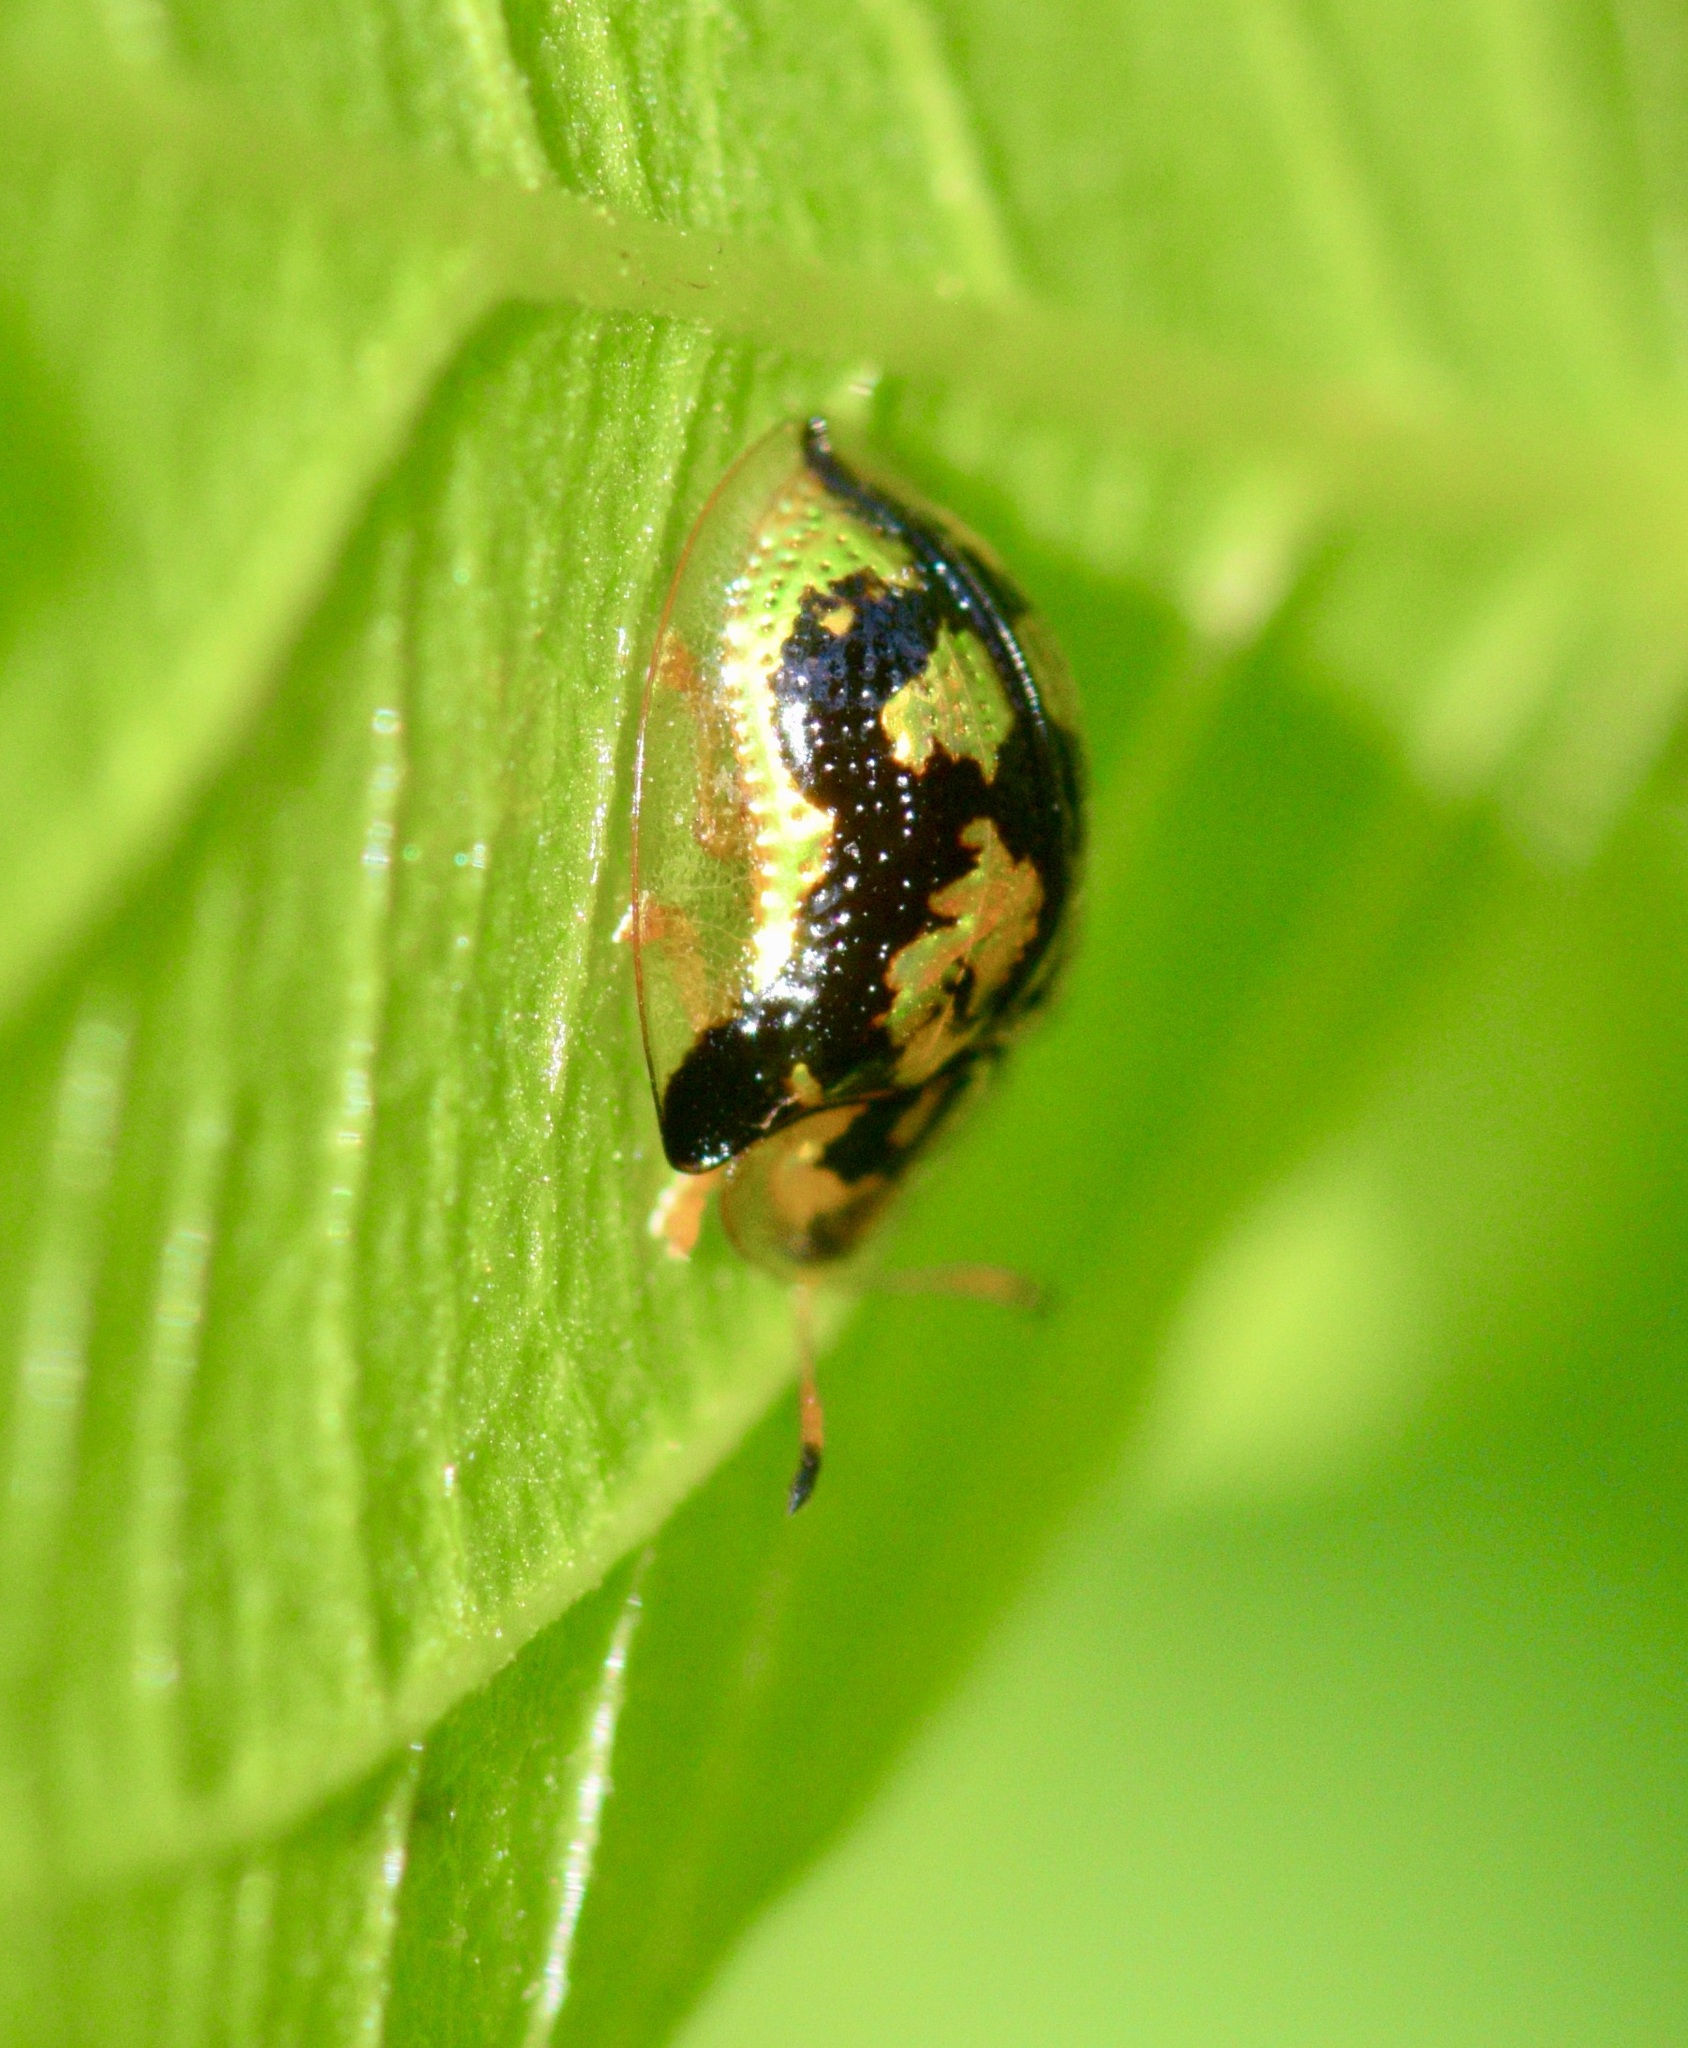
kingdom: Animalia
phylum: Arthropoda
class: Insecta
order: Coleoptera
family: Chrysomelidae
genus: Deloyala
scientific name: Deloyala guttata
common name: Mottled tortoise beetle
